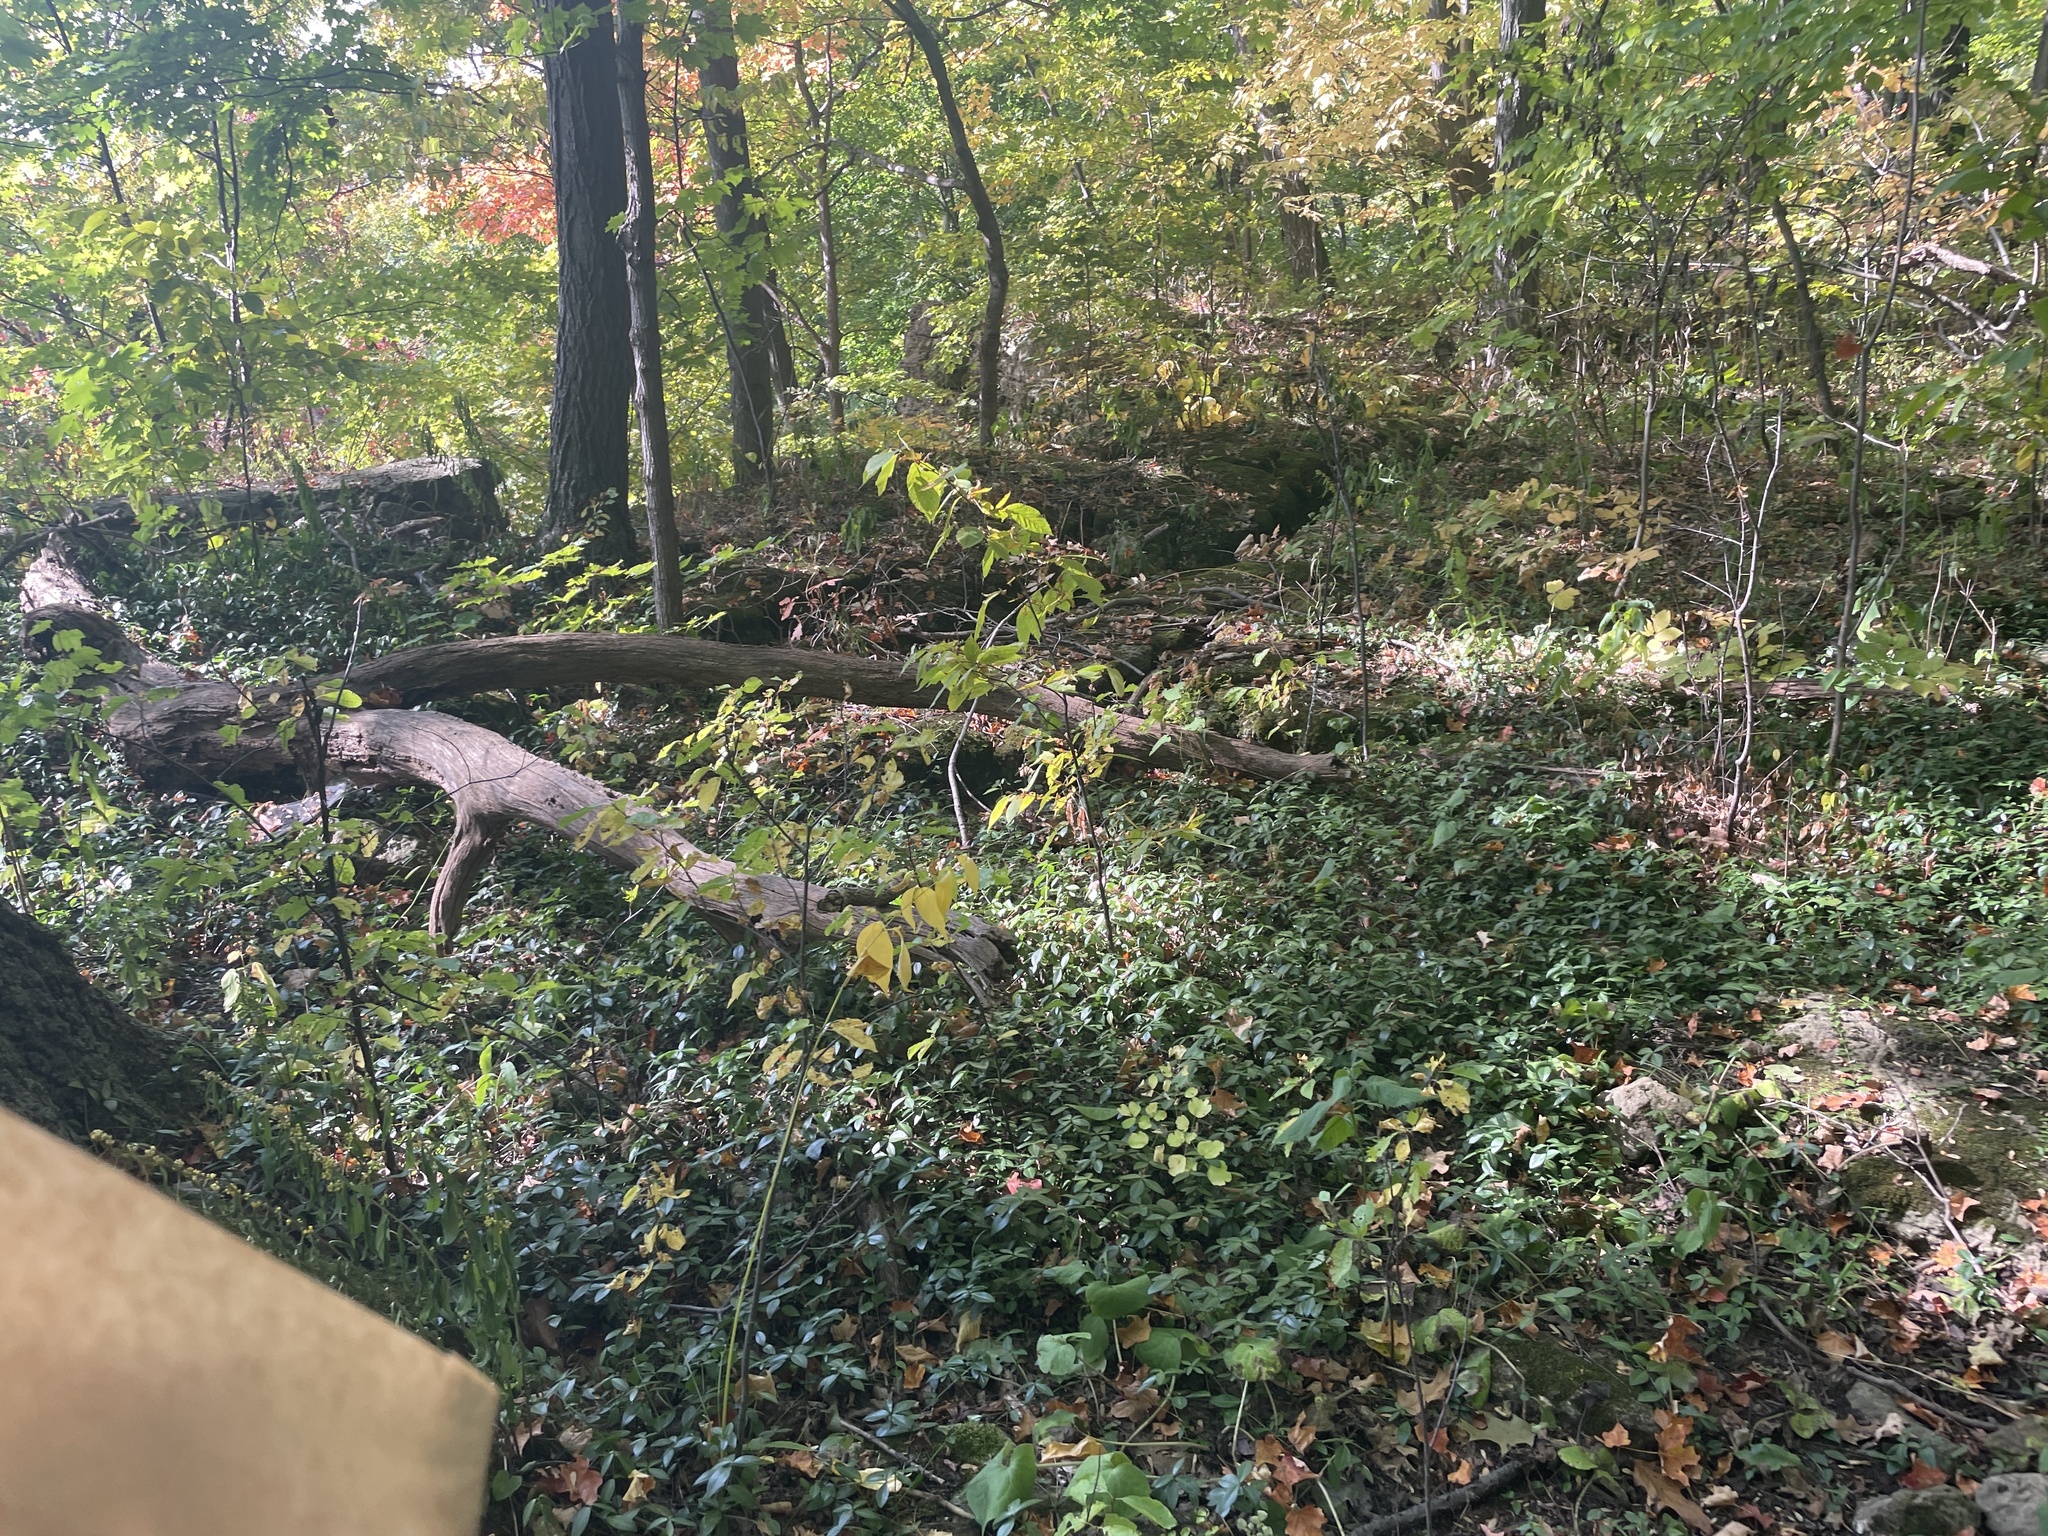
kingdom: Plantae
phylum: Tracheophyta
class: Magnoliopsida
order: Gentianales
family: Apocynaceae
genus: Vinca
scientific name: Vinca minor
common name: Lesser periwinkle
